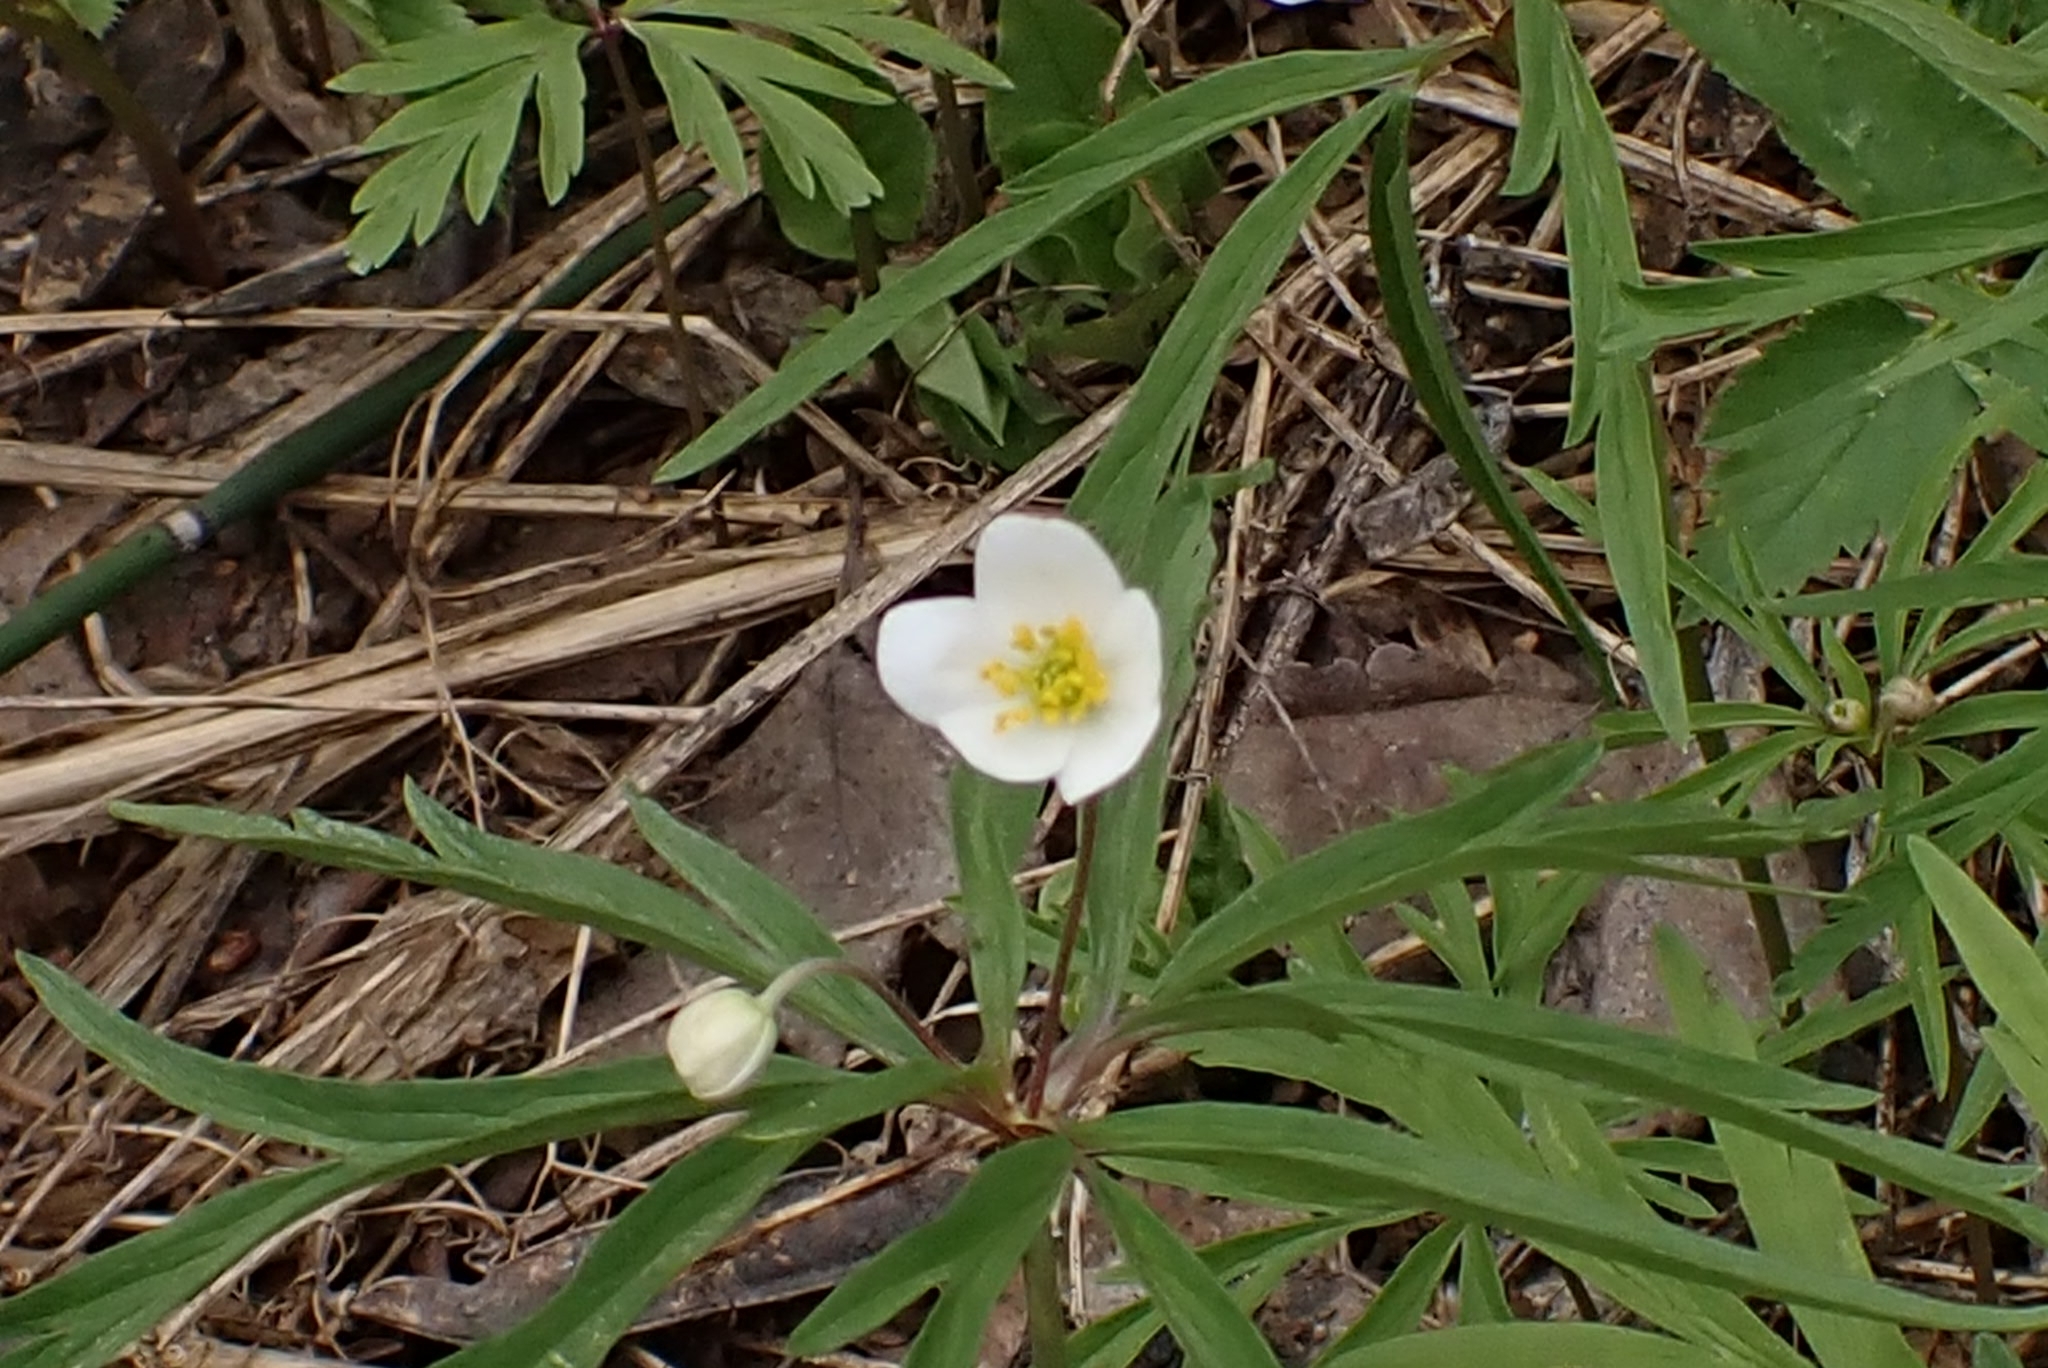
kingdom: Plantae
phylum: Tracheophyta
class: Magnoliopsida
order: Ranunculales
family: Ranunculaceae
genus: Anemone
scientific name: Anemone caerulea
